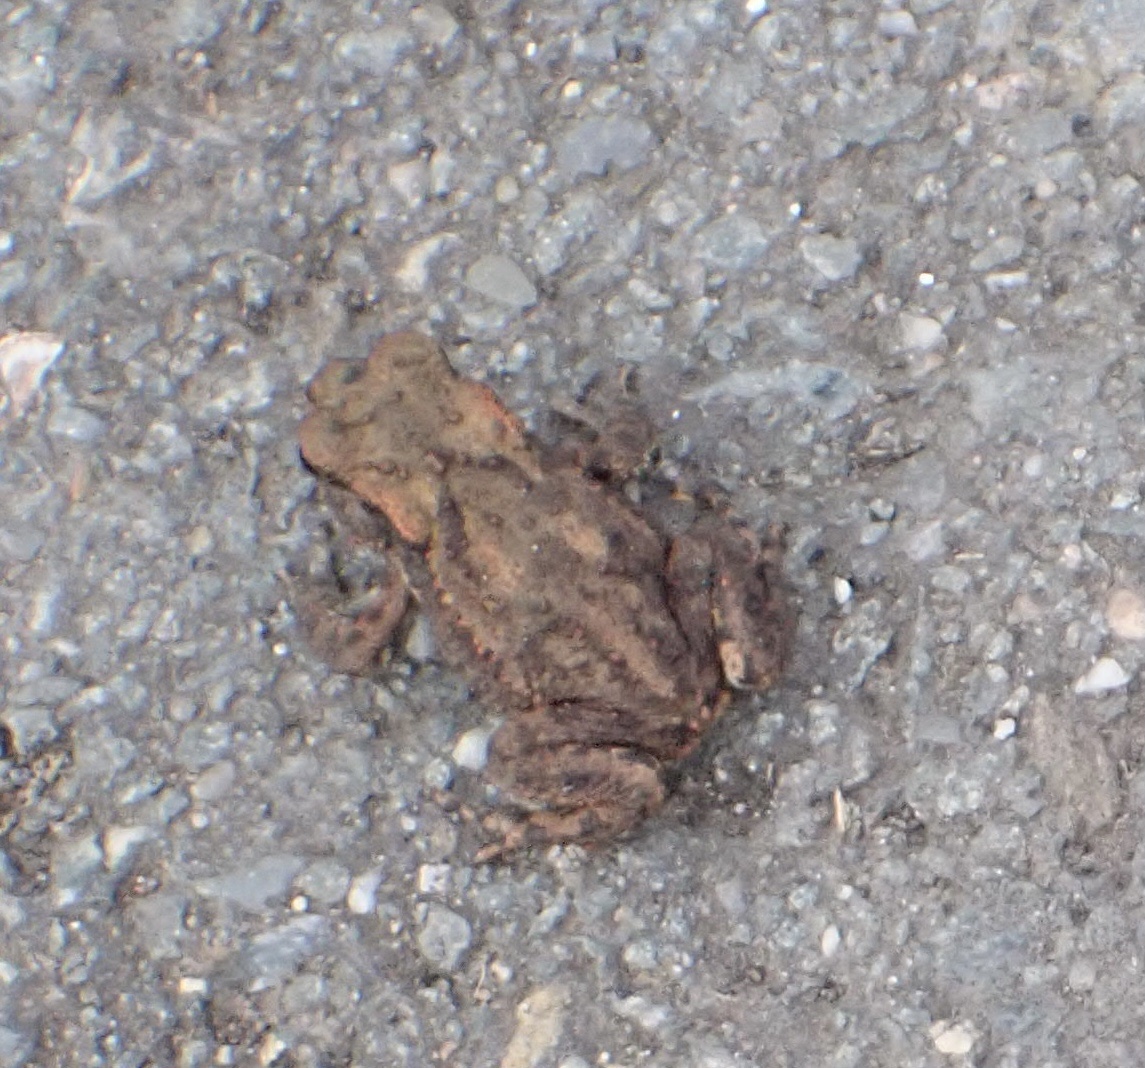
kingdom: Animalia
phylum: Chordata
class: Amphibia
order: Anura
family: Bufonidae
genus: Bufo
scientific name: Bufo bufo
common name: Common toad
